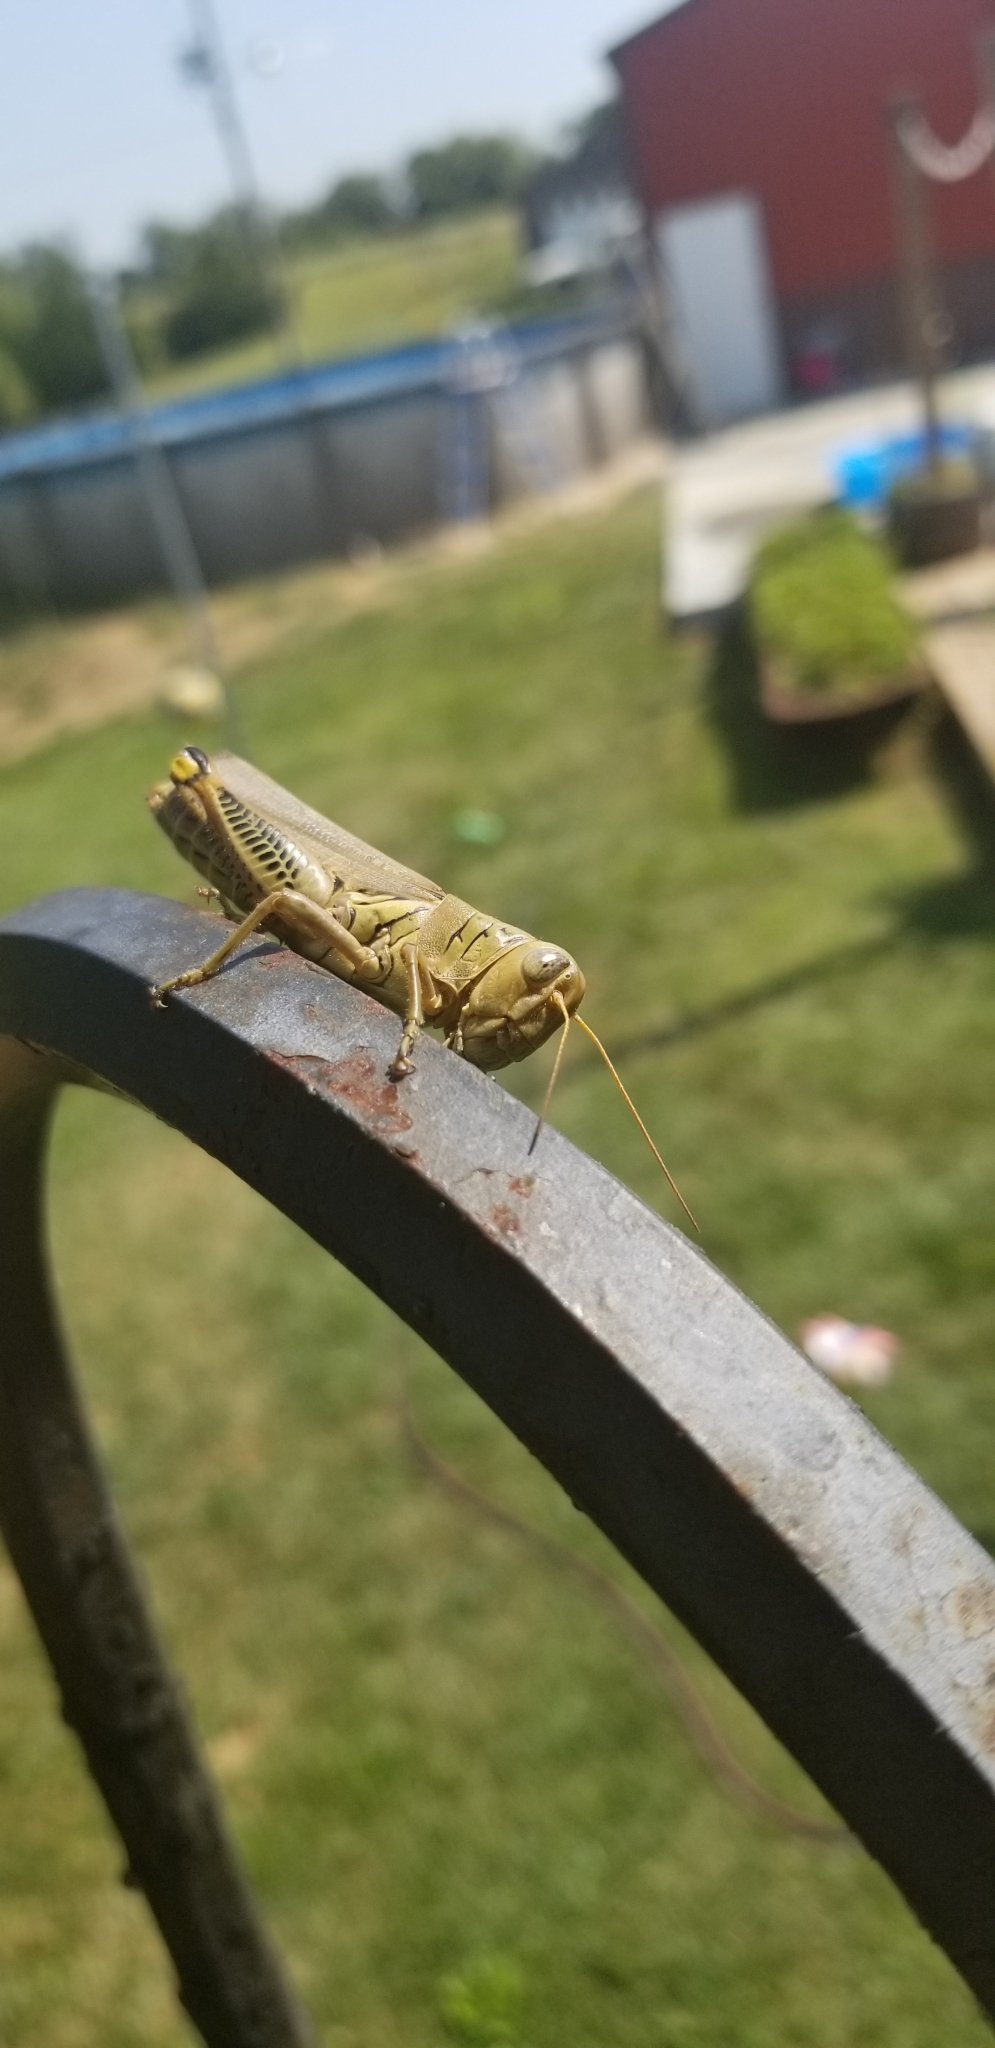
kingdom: Animalia
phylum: Arthropoda
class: Insecta
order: Orthoptera
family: Acrididae
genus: Melanoplus
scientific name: Melanoplus differentialis
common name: Differential grasshopper
